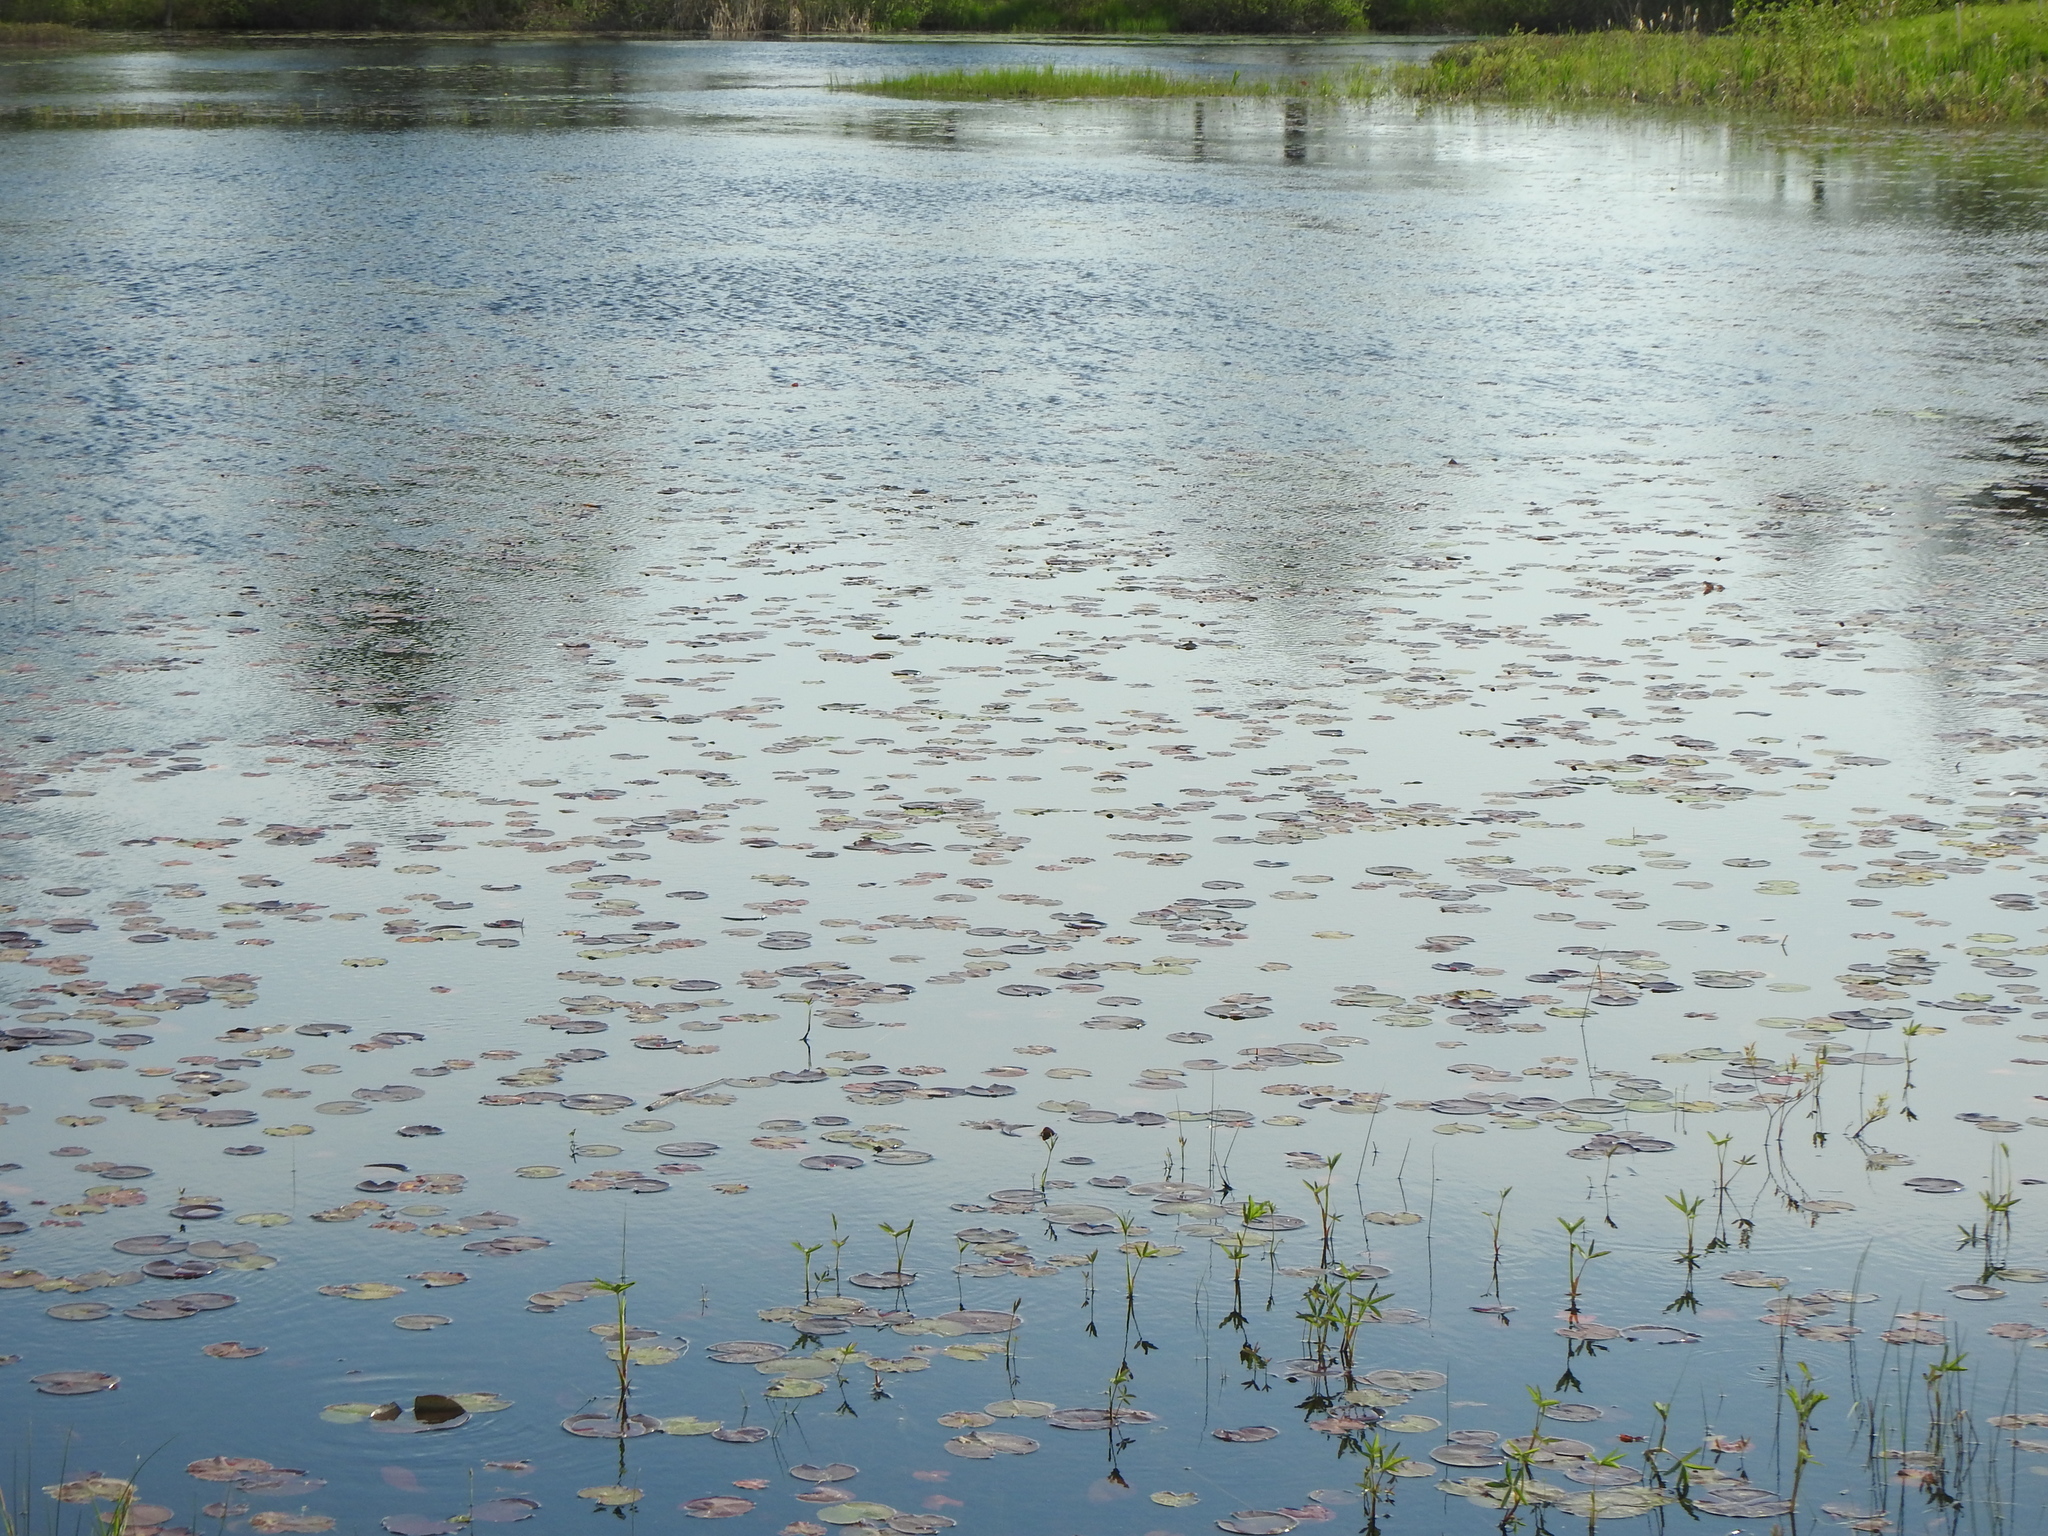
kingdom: Plantae
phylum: Tracheophyta
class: Magnoliopsida
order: Nymphaeales
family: Nymphaeaceae
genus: Nymphaea
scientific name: Nymphaea odorata
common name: Fragrant water-lily
